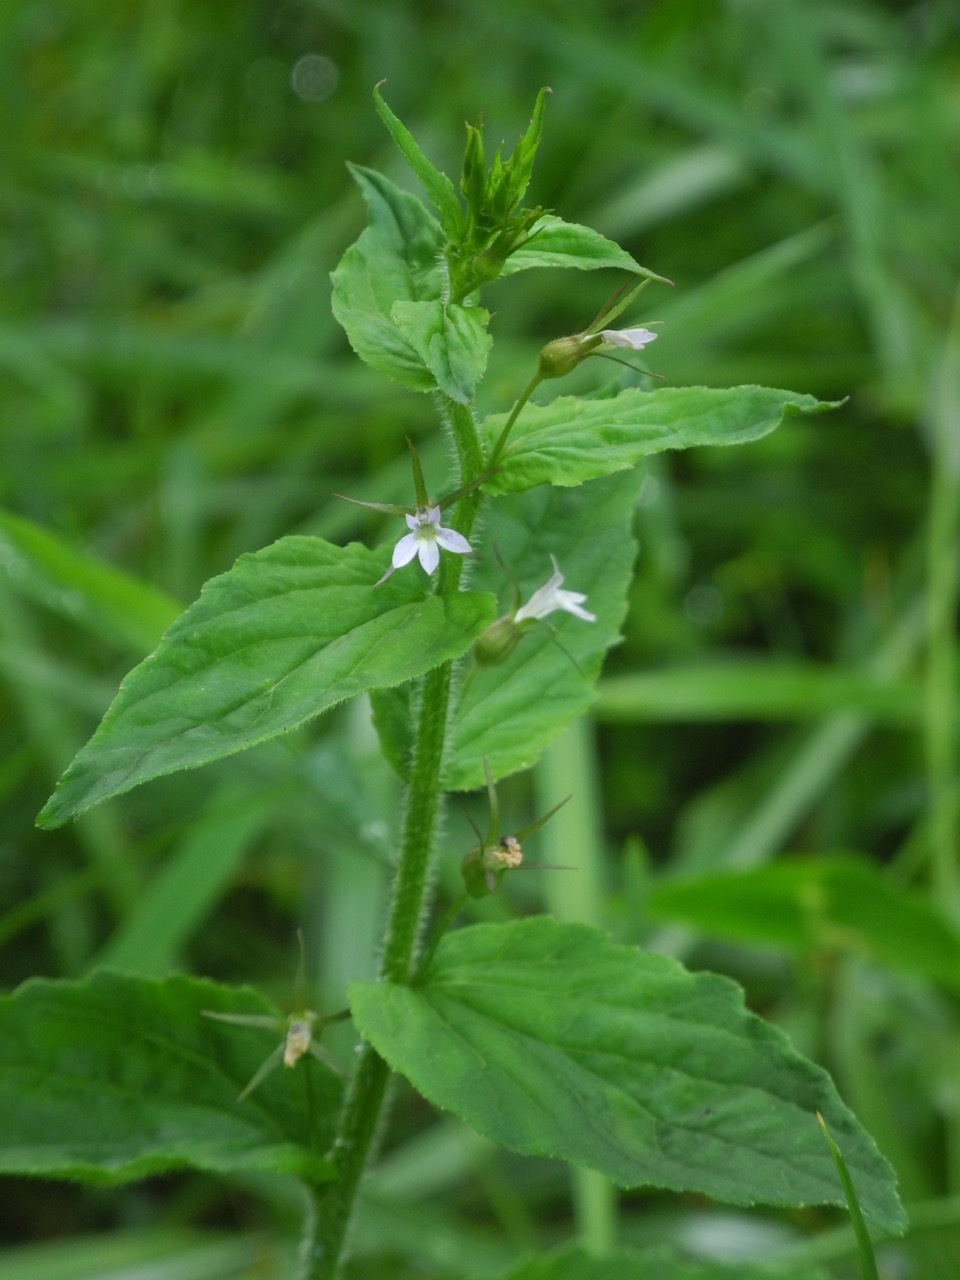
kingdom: Plantae
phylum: Tracheophyta
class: Magnoliopsida
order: Asterales
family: Campanulaceae
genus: Lobelia
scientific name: Lobelia inflata
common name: Indian tobacco
